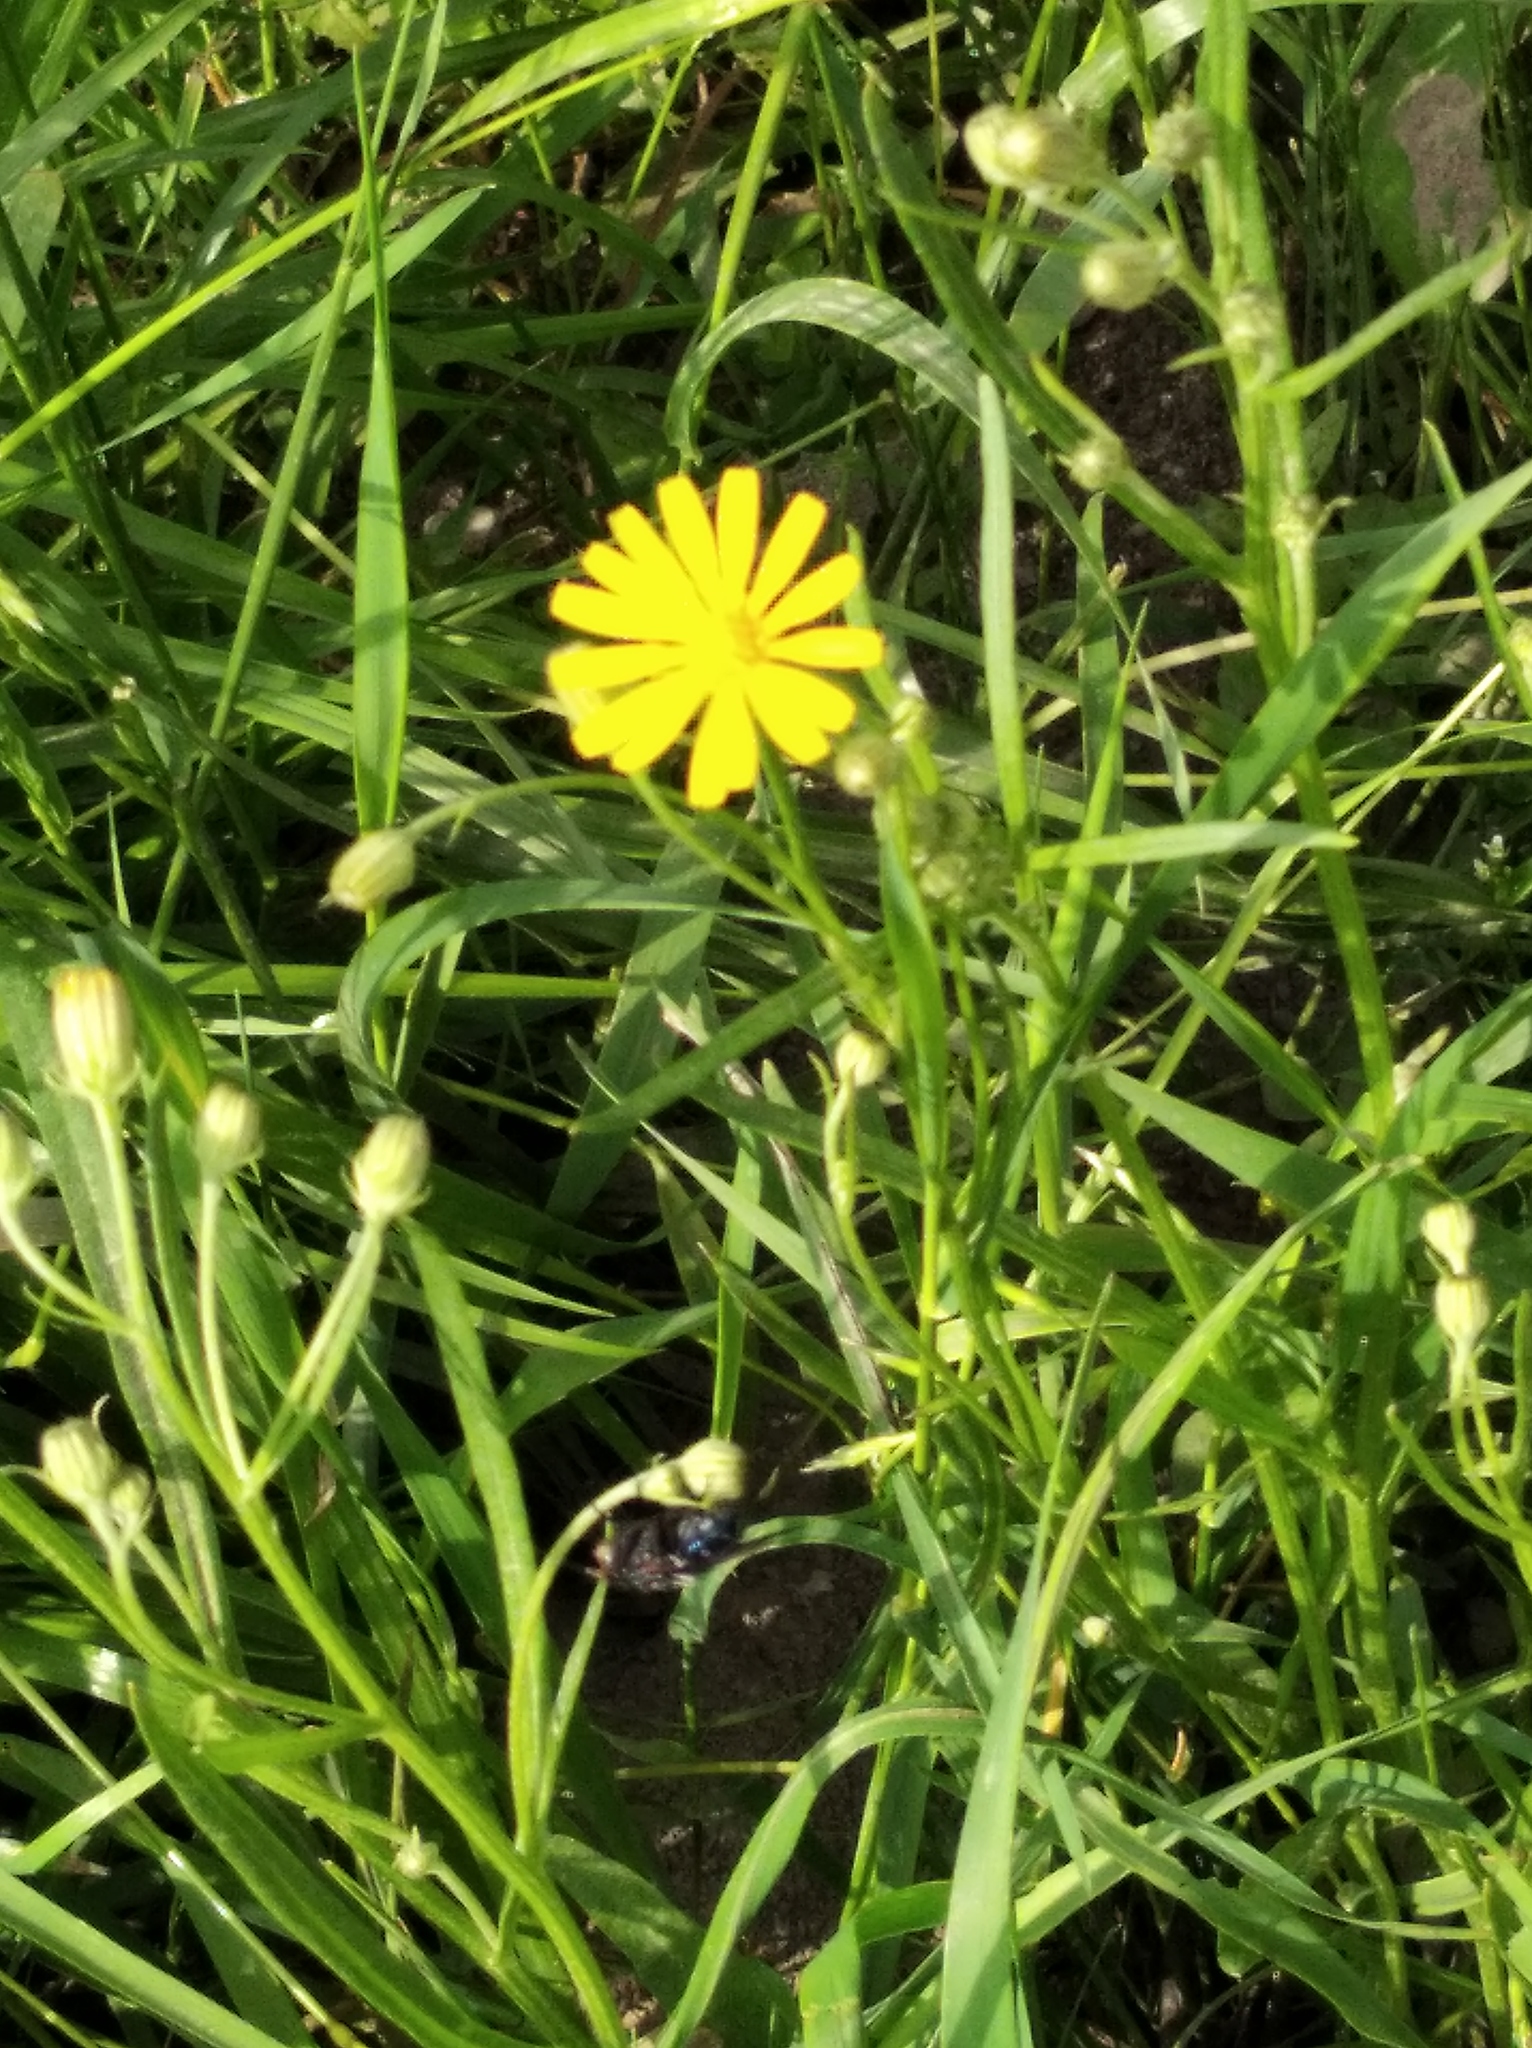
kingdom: Plantae
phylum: Tracheophyta
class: Magnoliopsida
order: Asterales
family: Asteraceae
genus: Crepis
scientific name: Crepis tectorum
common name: Narrow-leaved hawk's-beard
